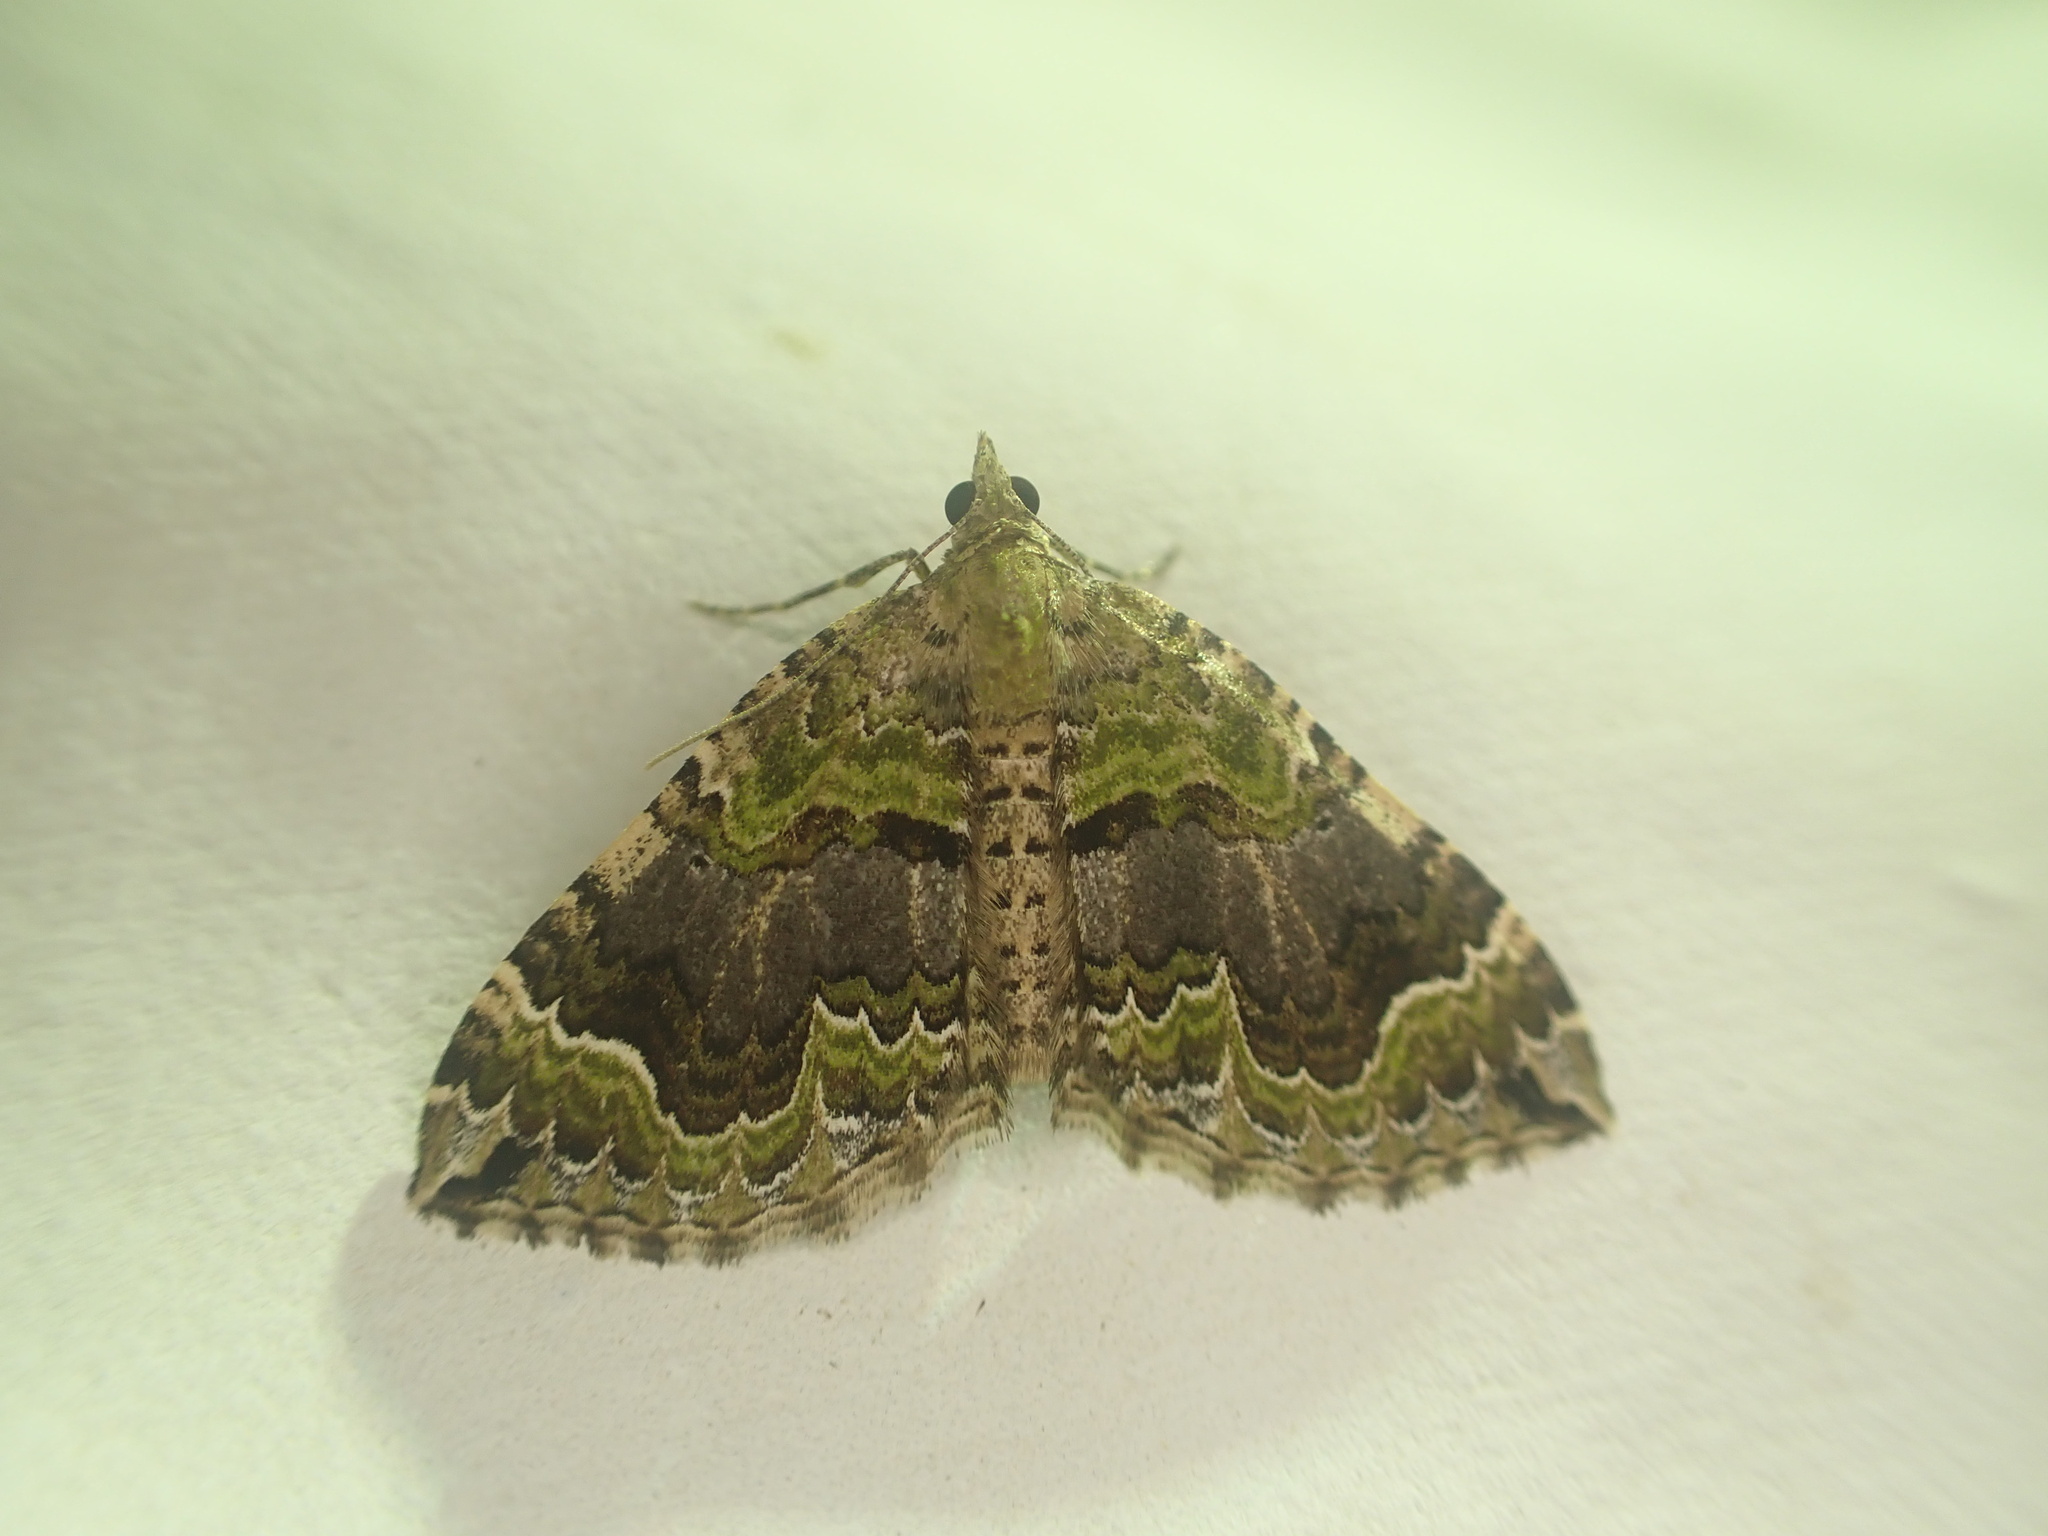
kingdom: Animalia
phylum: Arthropoda
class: Insecta
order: Lepidoptera
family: Geometridae
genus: Hydriomena
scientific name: Hydriomena rixata
